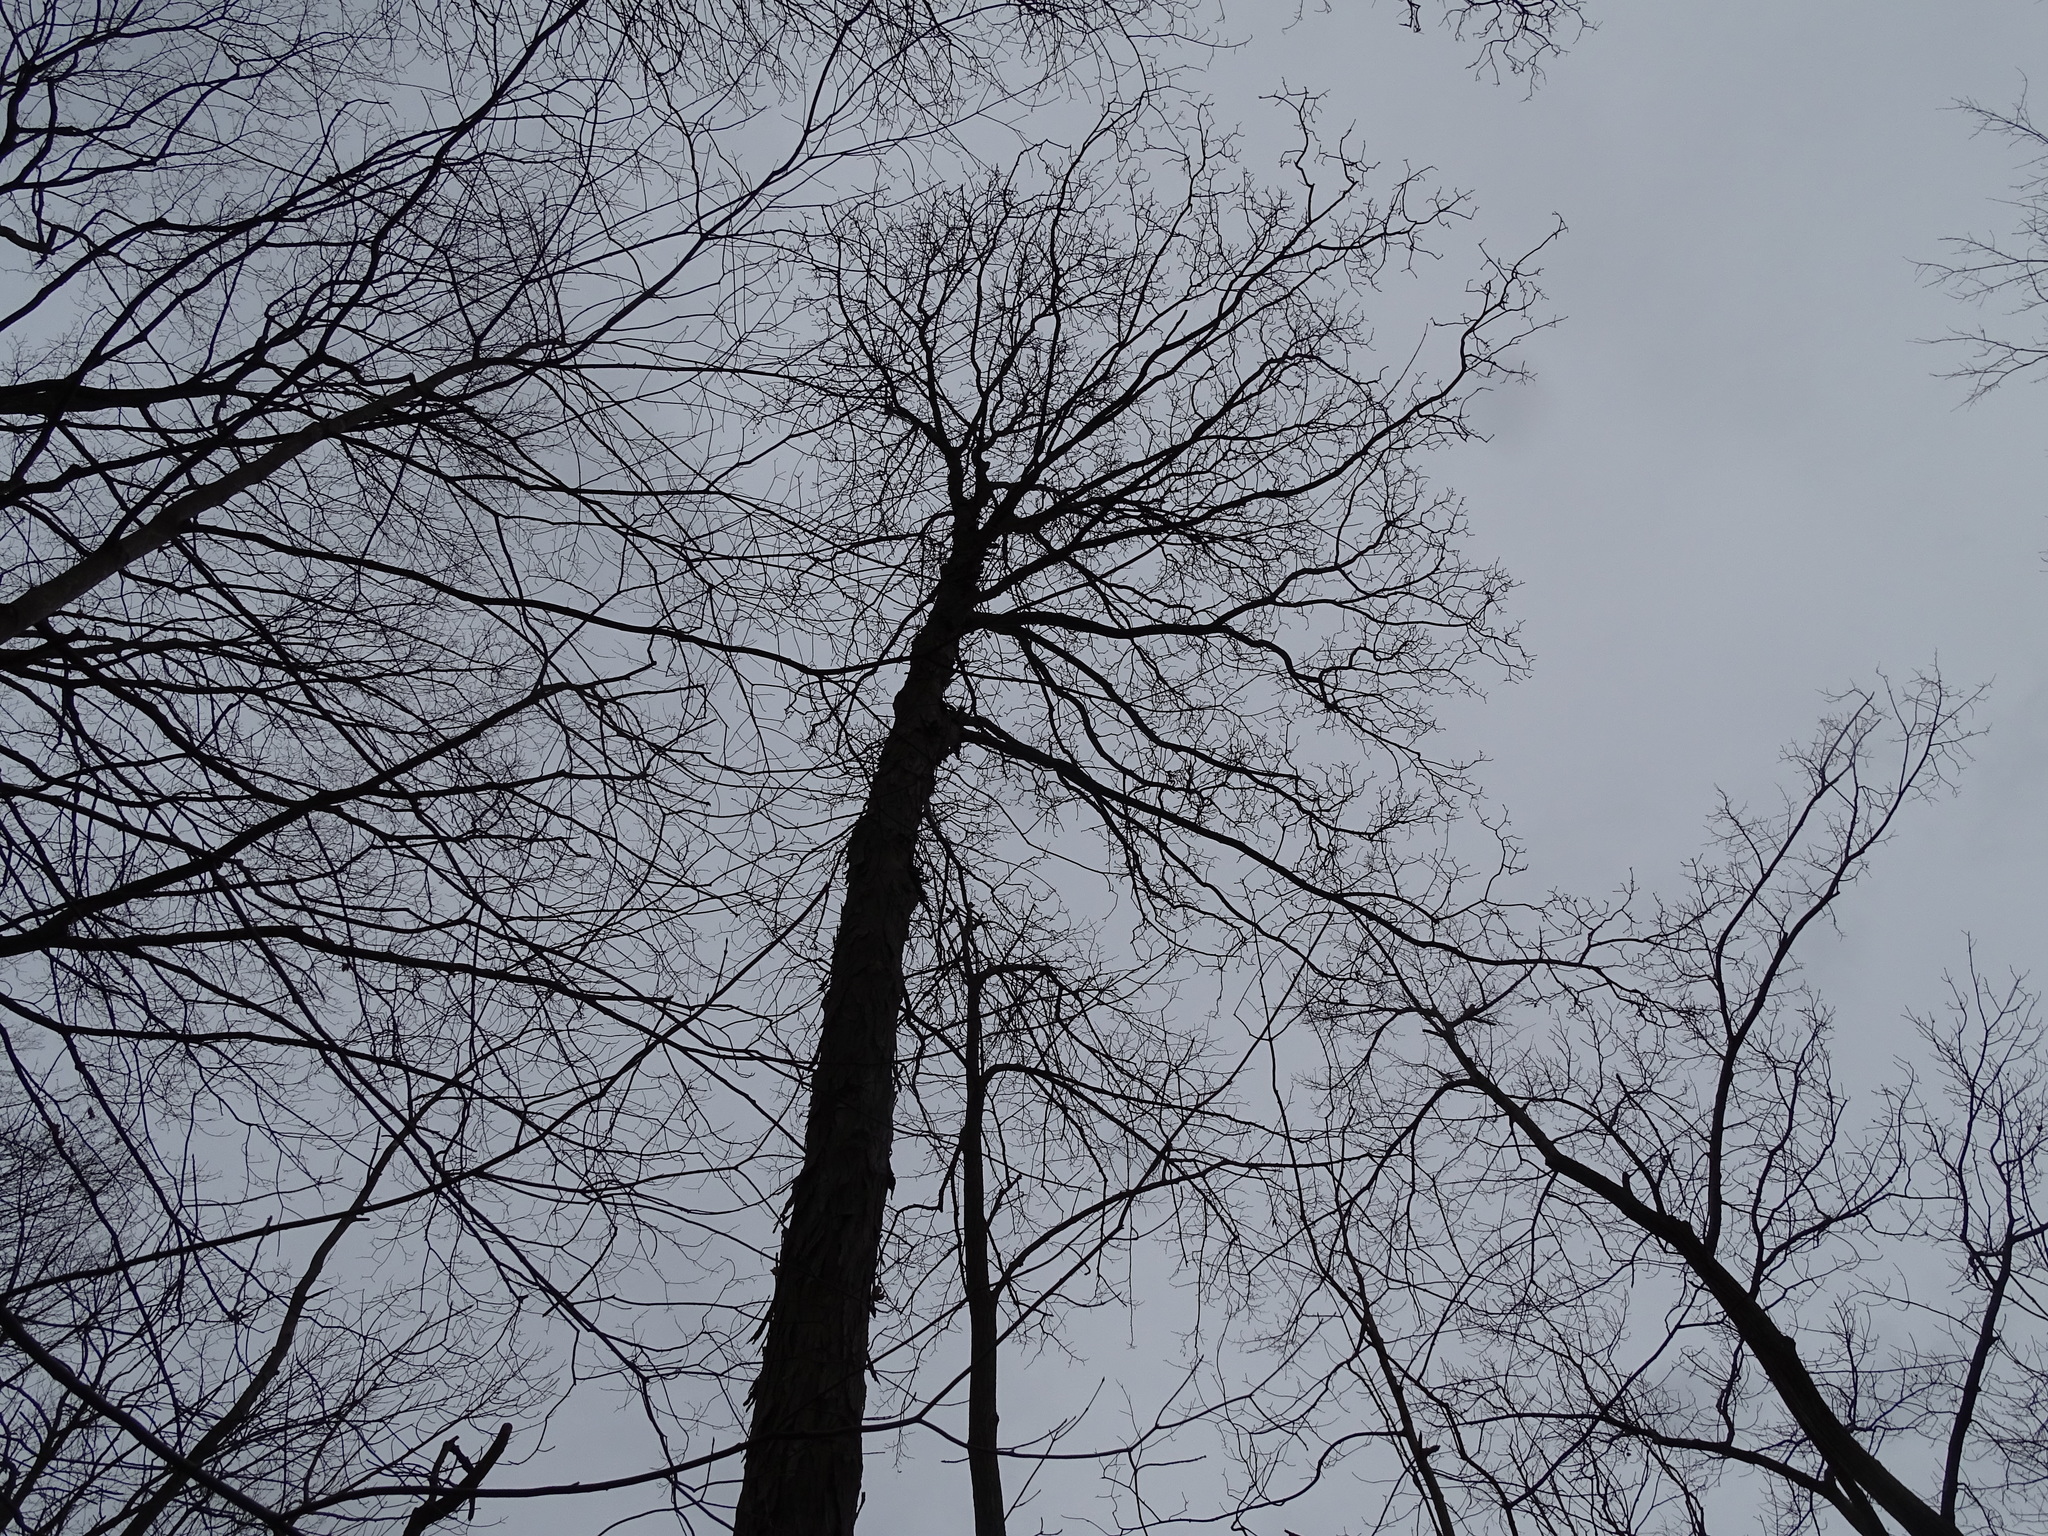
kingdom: Plantae
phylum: Tracheophyta
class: Magnoliopsida
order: Fagales
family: Juglandaceae
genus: Carya
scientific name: Carya ovata
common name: Shagbark hickory
